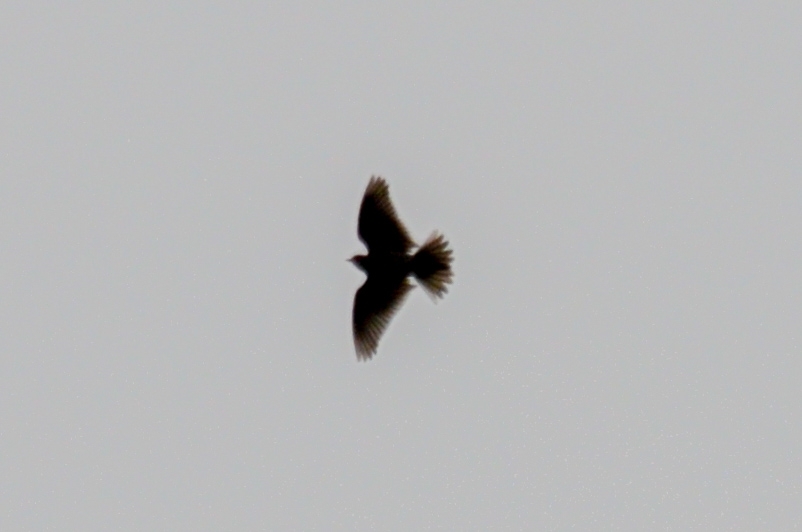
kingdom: Animalia
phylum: Chordata
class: Aves
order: Passeriformes
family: Alaudidae
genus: Alauda
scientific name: Alauda arvensis
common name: Eurasian skylark
